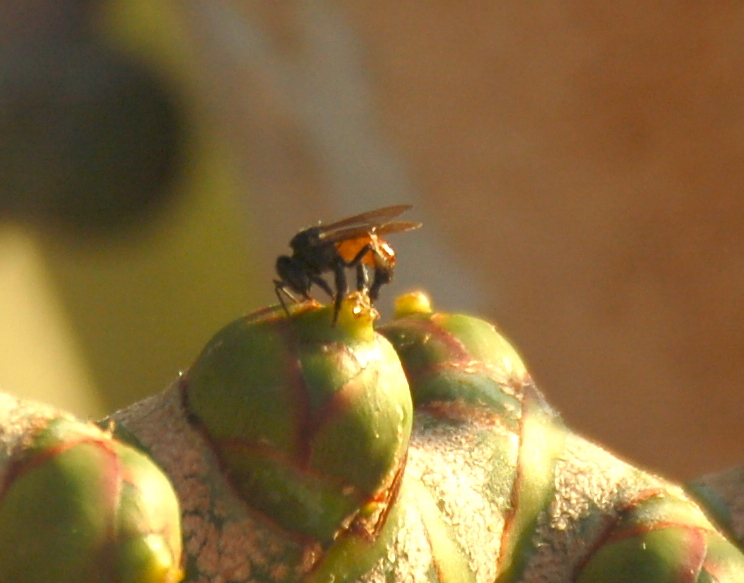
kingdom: Animalia
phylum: Arthropoda
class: Insecta
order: Hymenoptera
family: Apidae
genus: Trigona
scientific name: Trigona fulviventris
